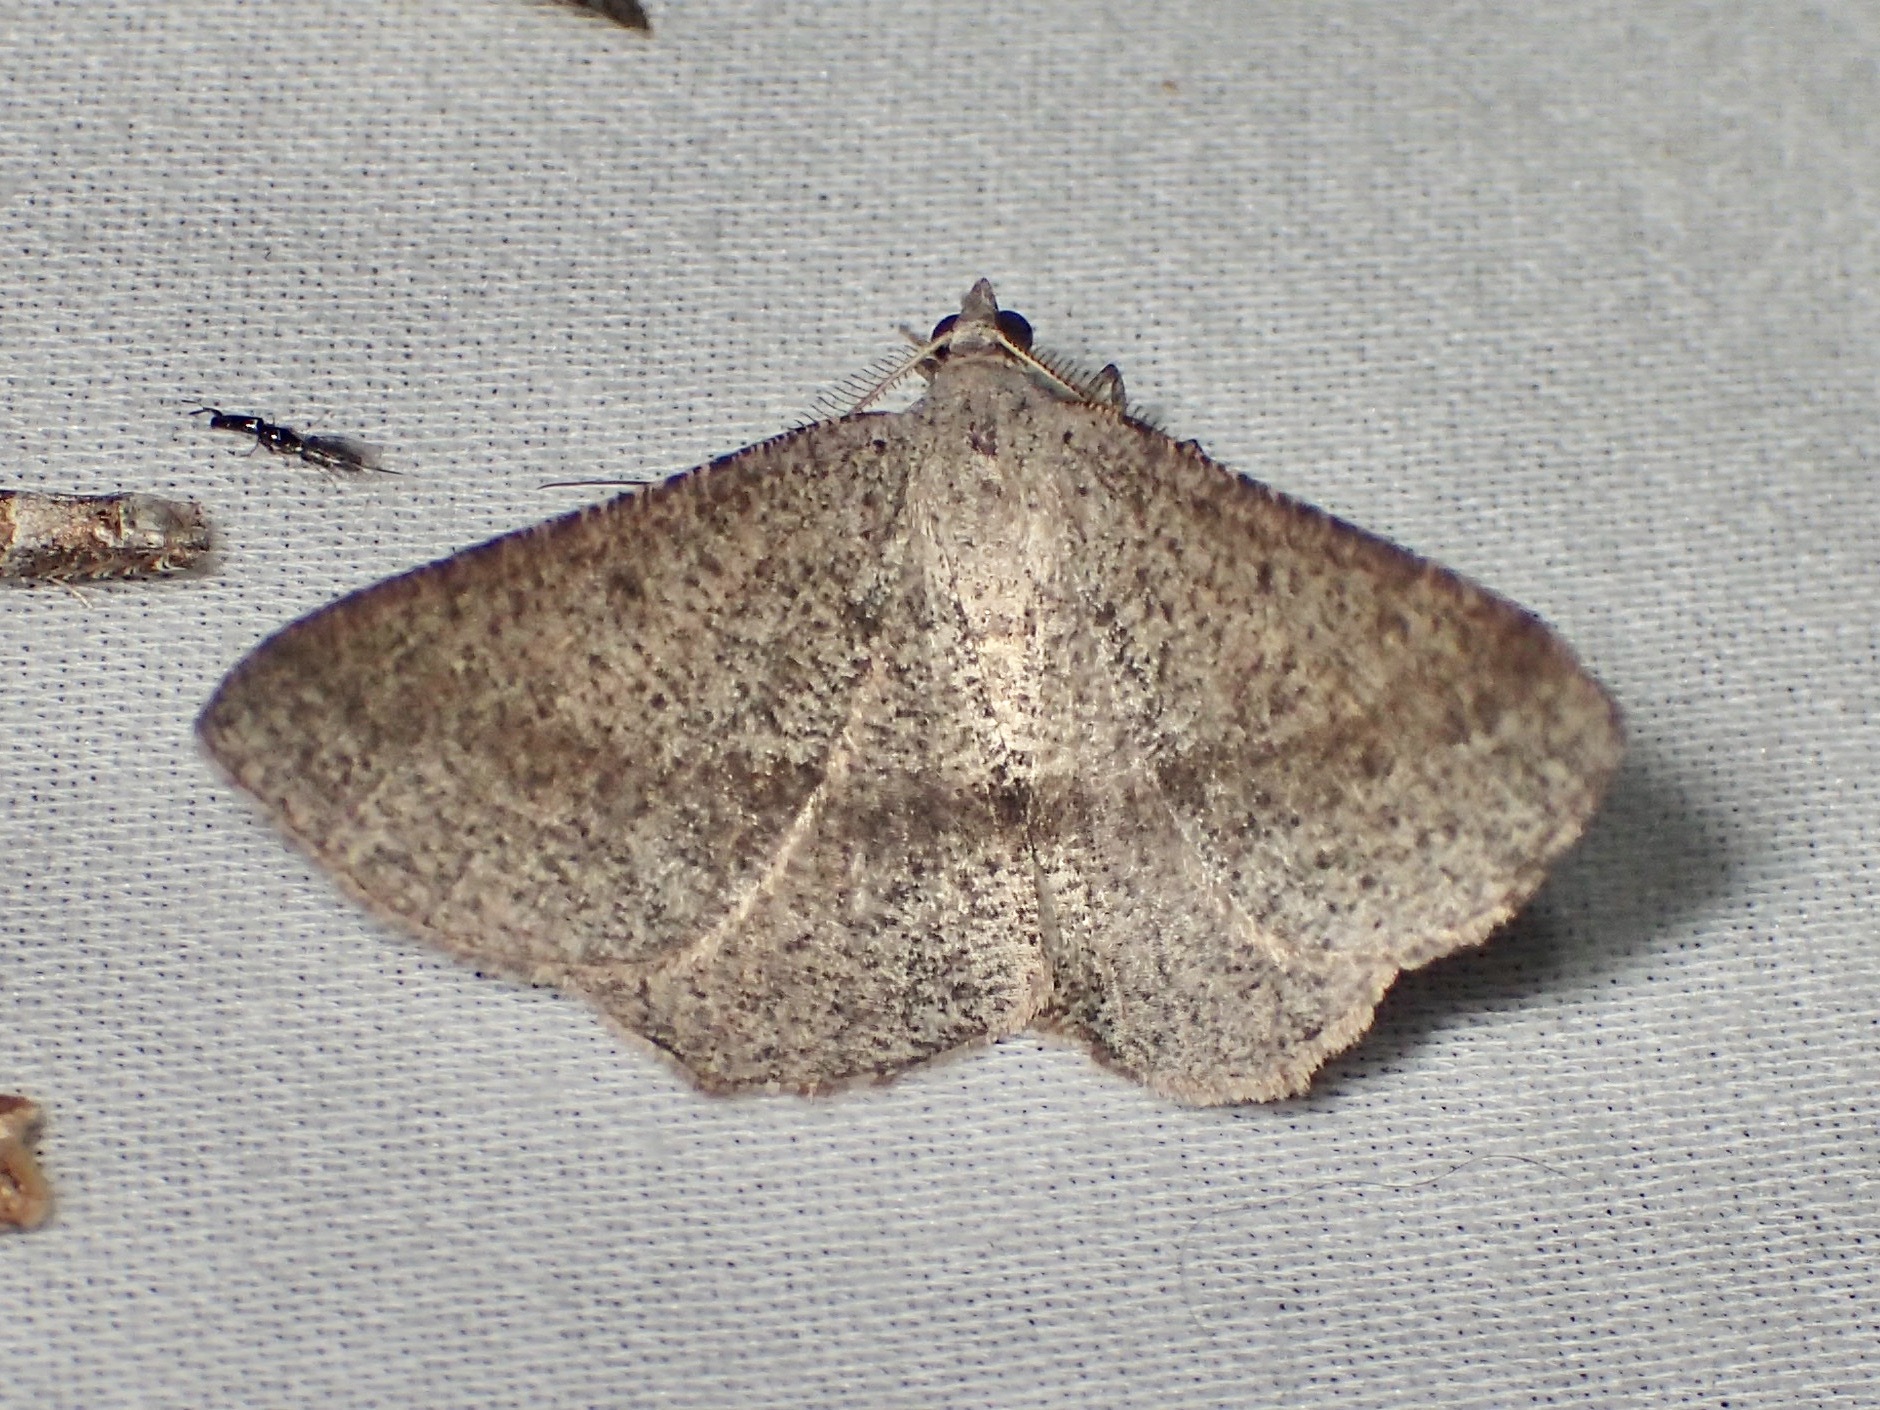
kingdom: Animalia
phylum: Arthropoda
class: Insecta
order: Lepidoptera
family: Geometridae
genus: Isturgia
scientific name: Isturgia
